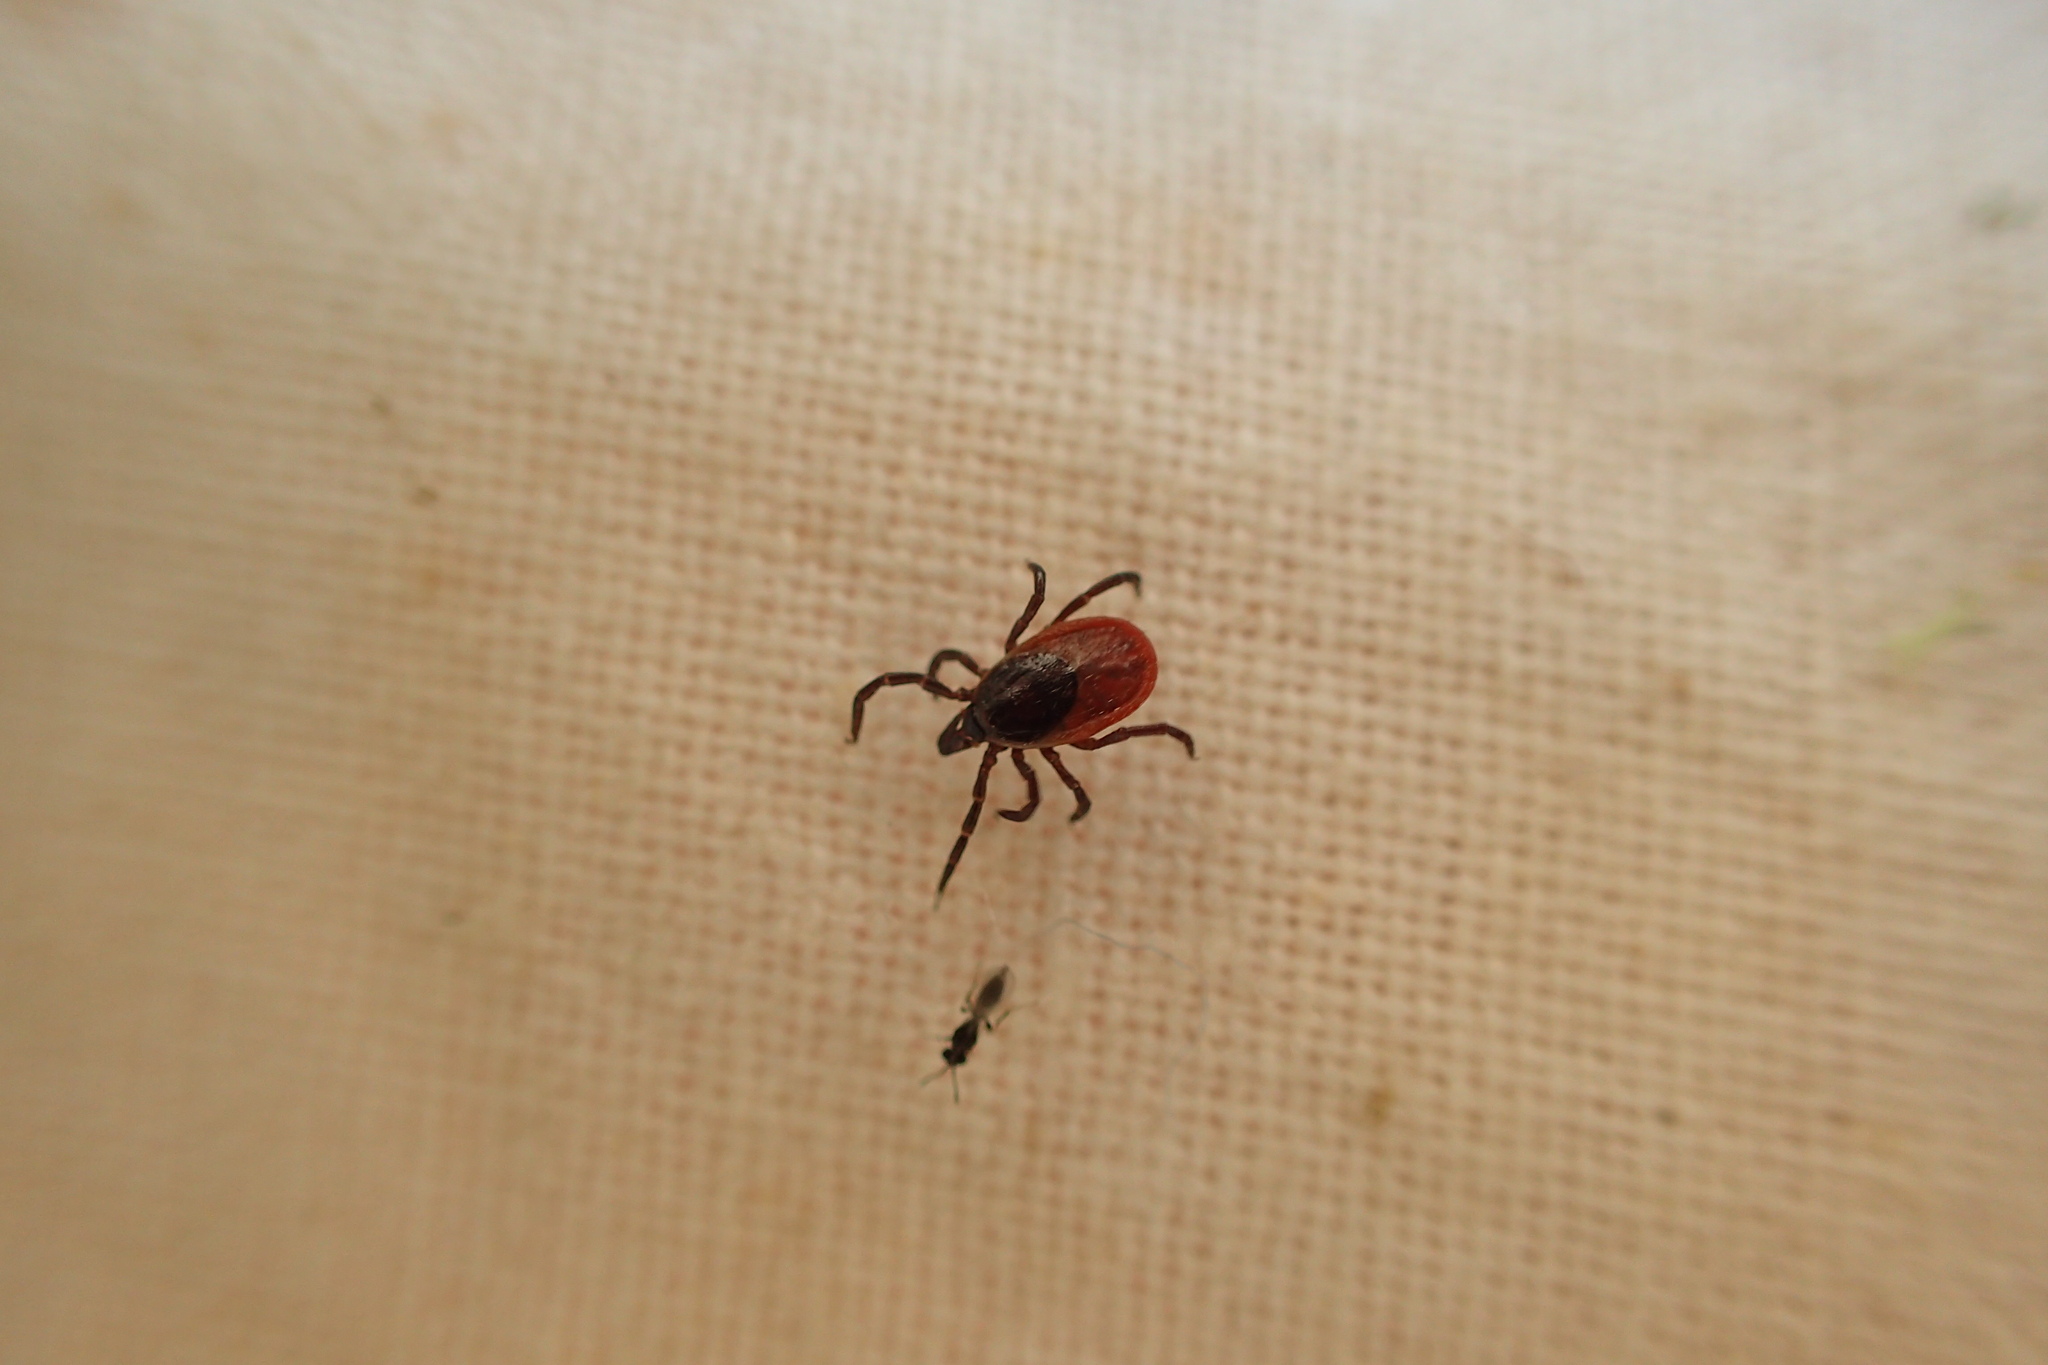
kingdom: Animalia
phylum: Arthropoda
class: Arachnida
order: Ixodida
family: Ixodidae
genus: Ixodes
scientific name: Ixodes ricinus
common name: Castor bean tick
